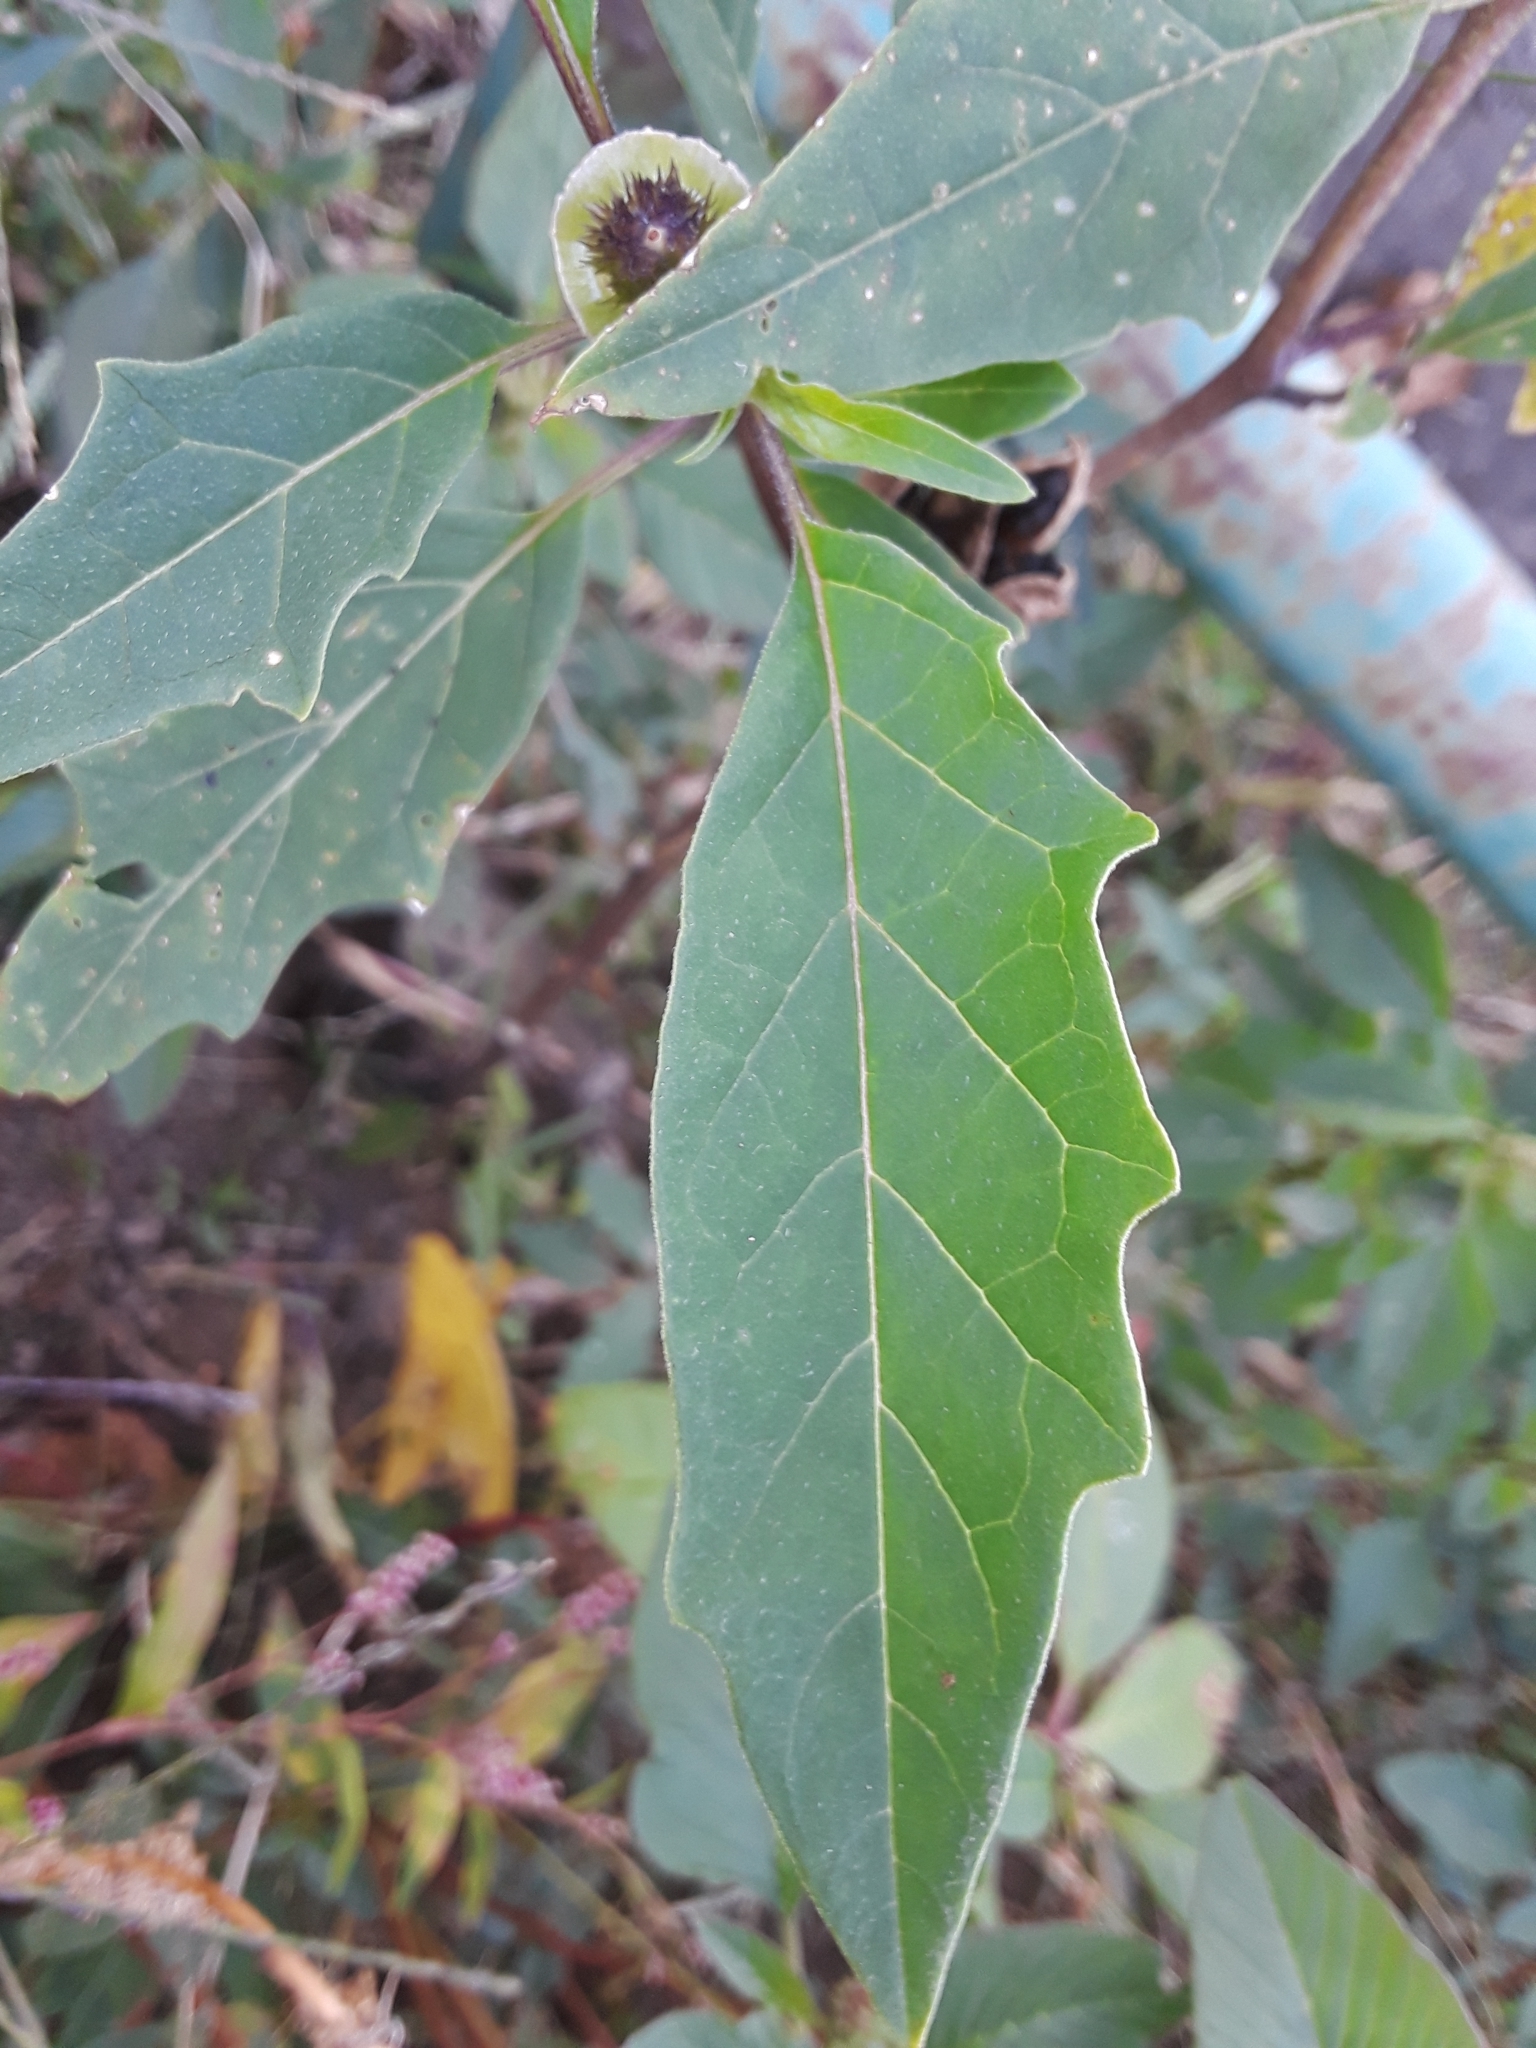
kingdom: Plantae
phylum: Tracheophyta
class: Magnoliopsida
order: Solanales
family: Solanaceae
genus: Datura
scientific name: Datura stramonium
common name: Thorn-apple
